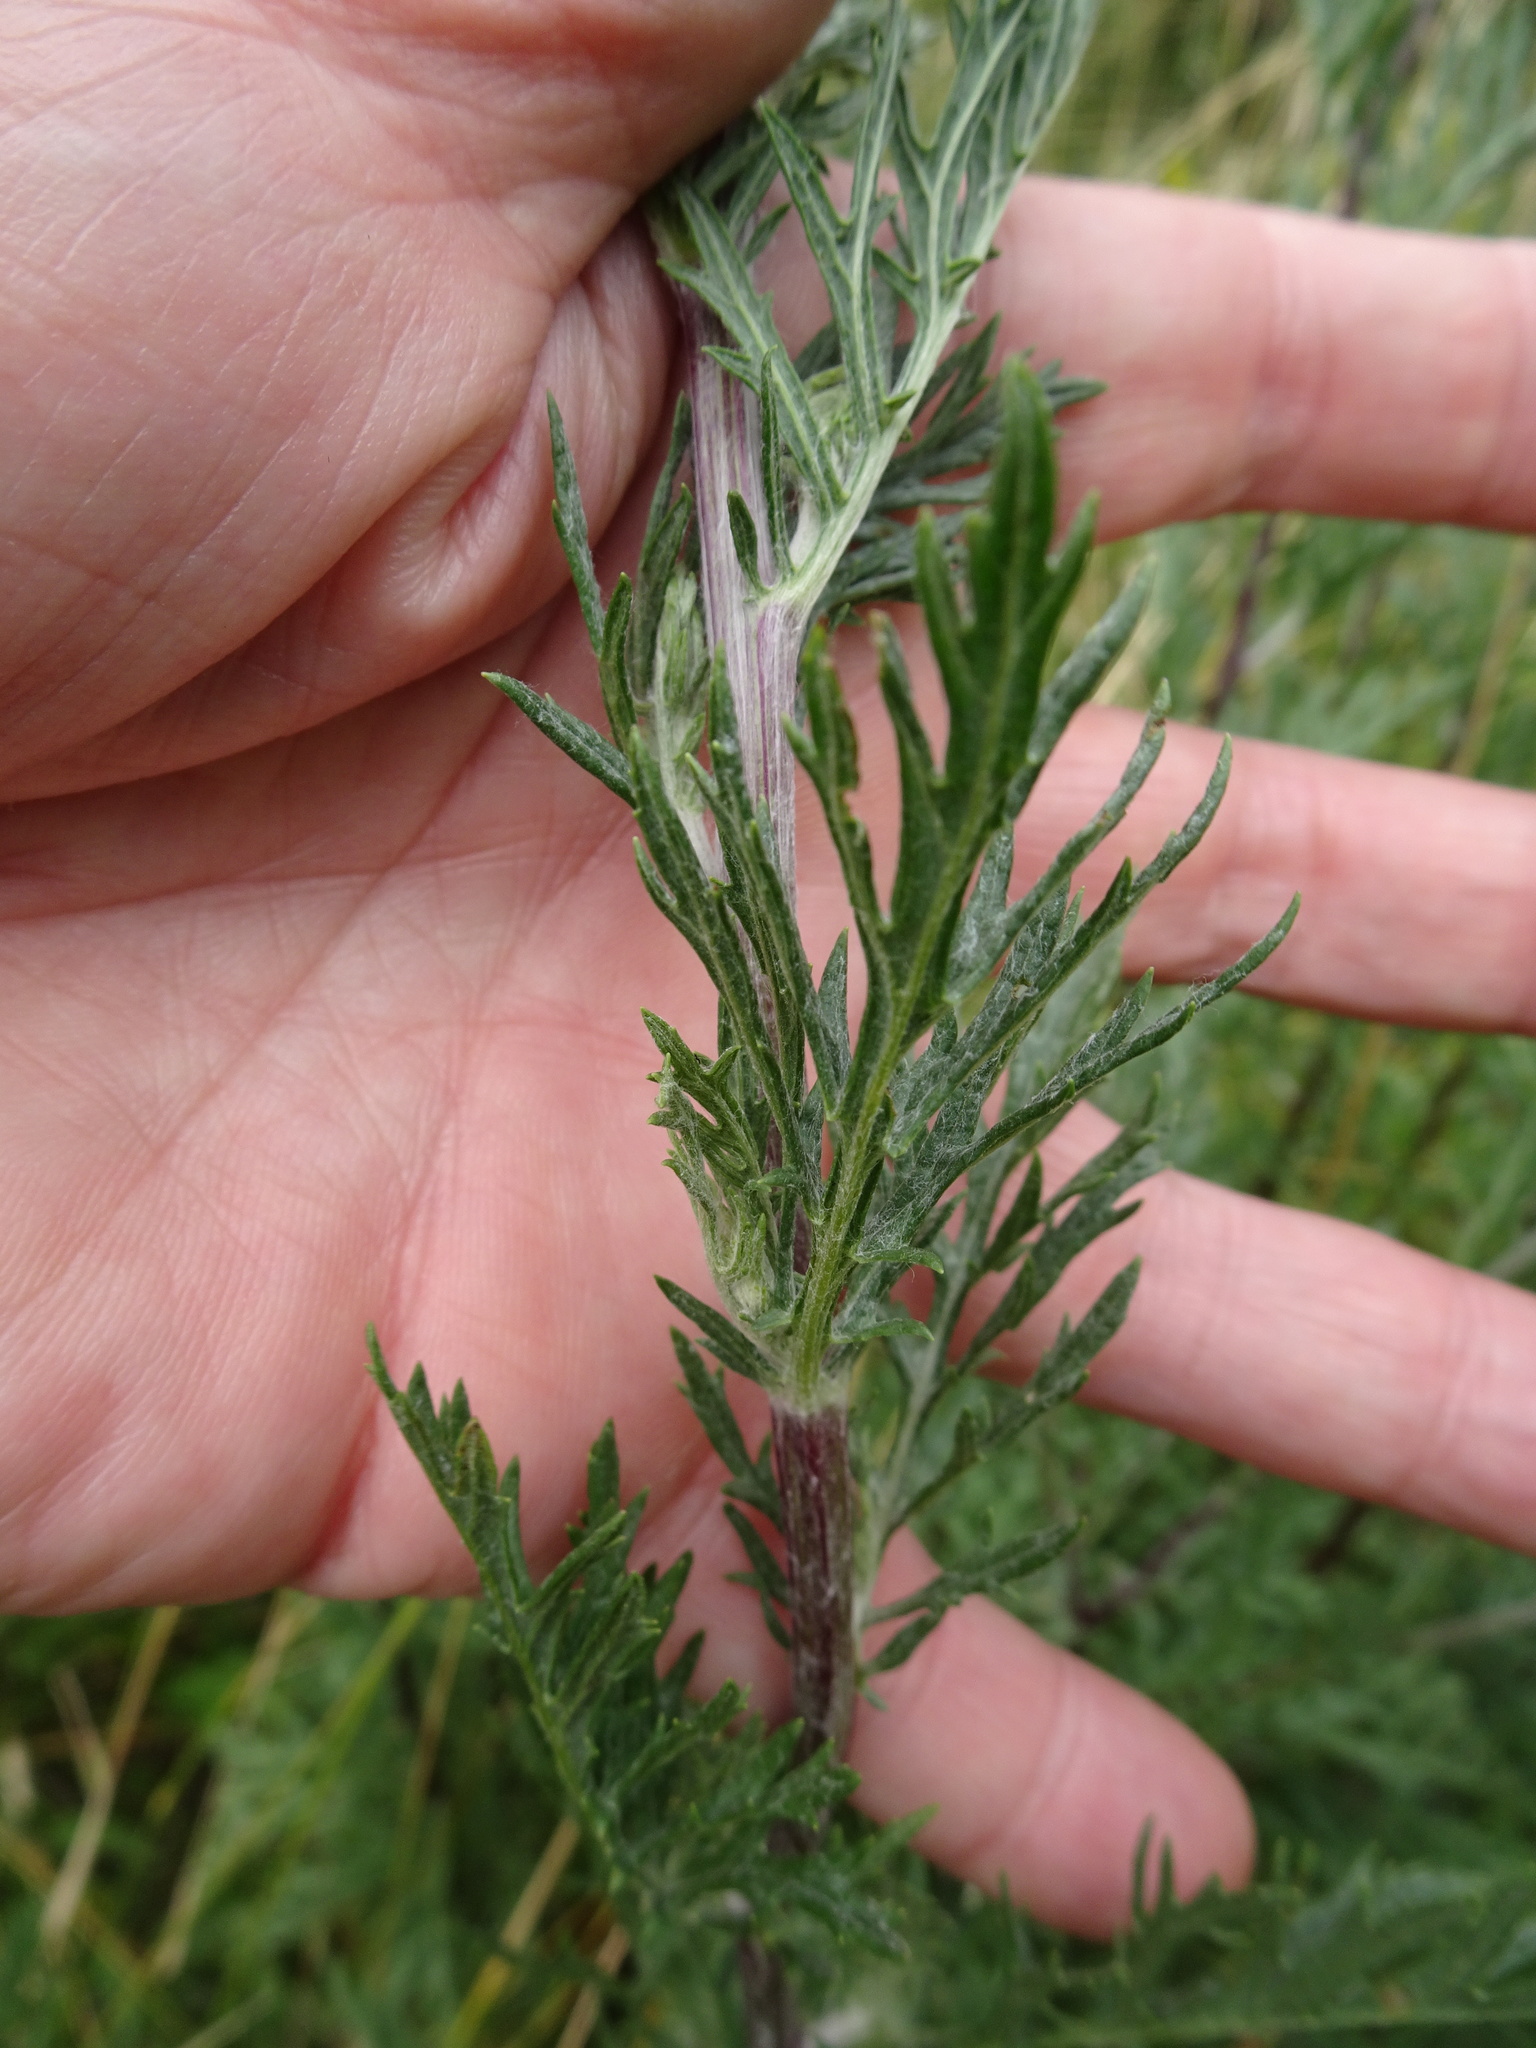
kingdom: Plantae
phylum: Tracheophyta
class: Magnoliopsida
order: Asterales
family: Asteraceae
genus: Artemisia
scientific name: Artemisia vulgaris
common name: Mugwort
